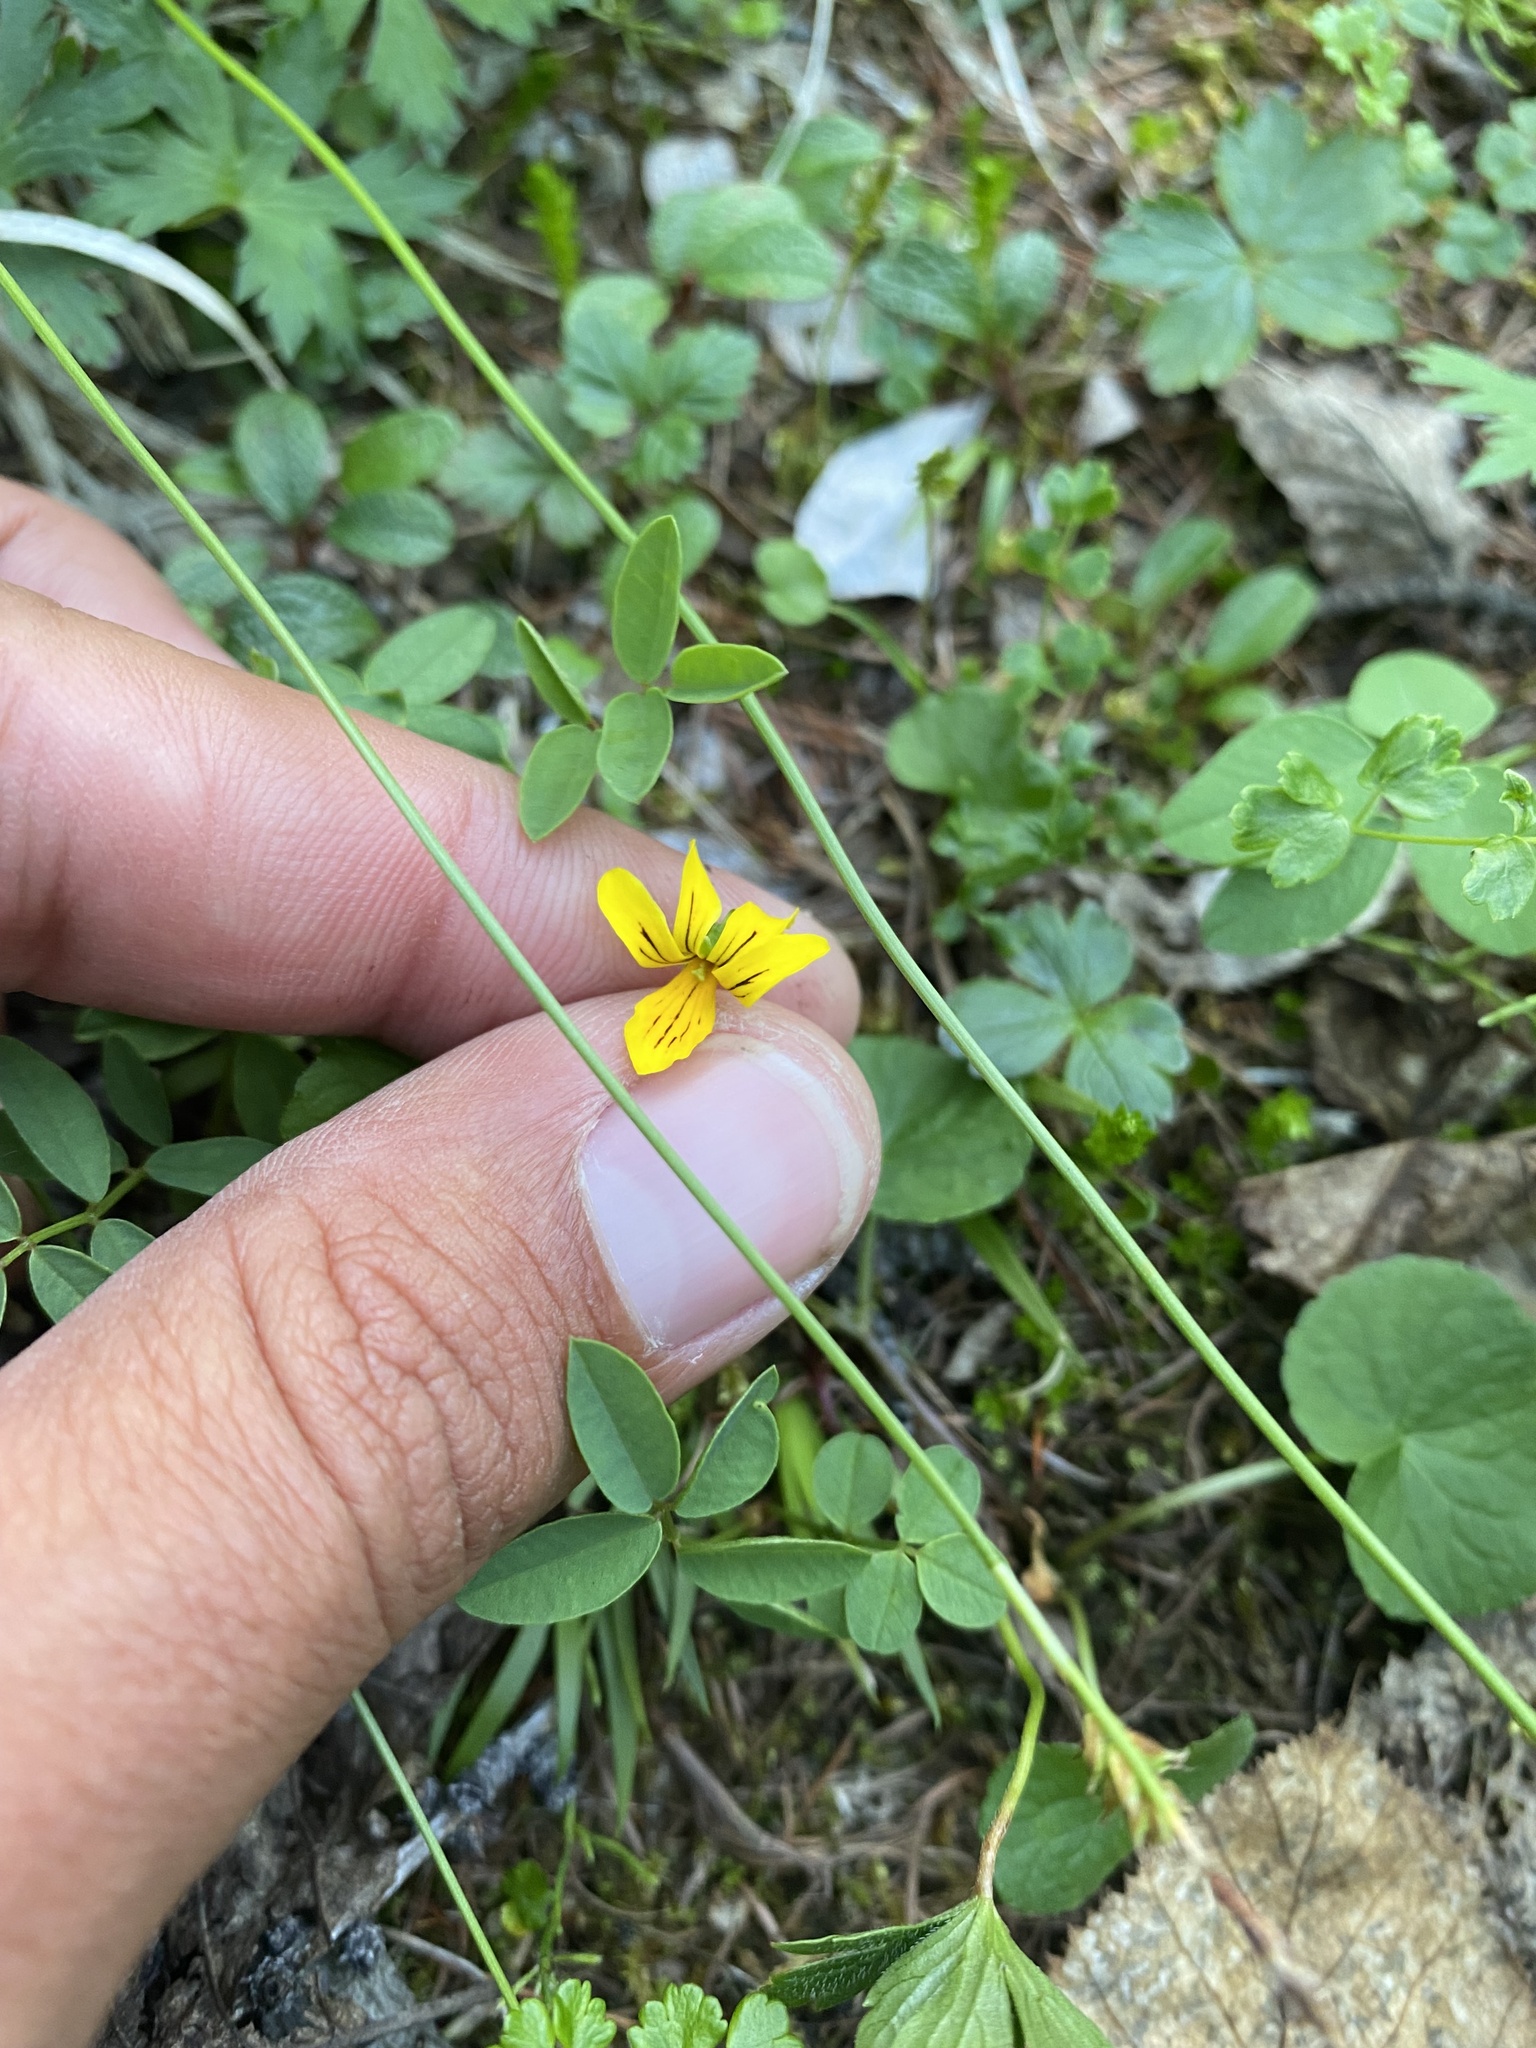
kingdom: Plantae
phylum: Tracheophyta
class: Magnoliopsida
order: Malpighiales
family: Violaceae
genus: Viola
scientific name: Viola biflora
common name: Alpine yellow violet
